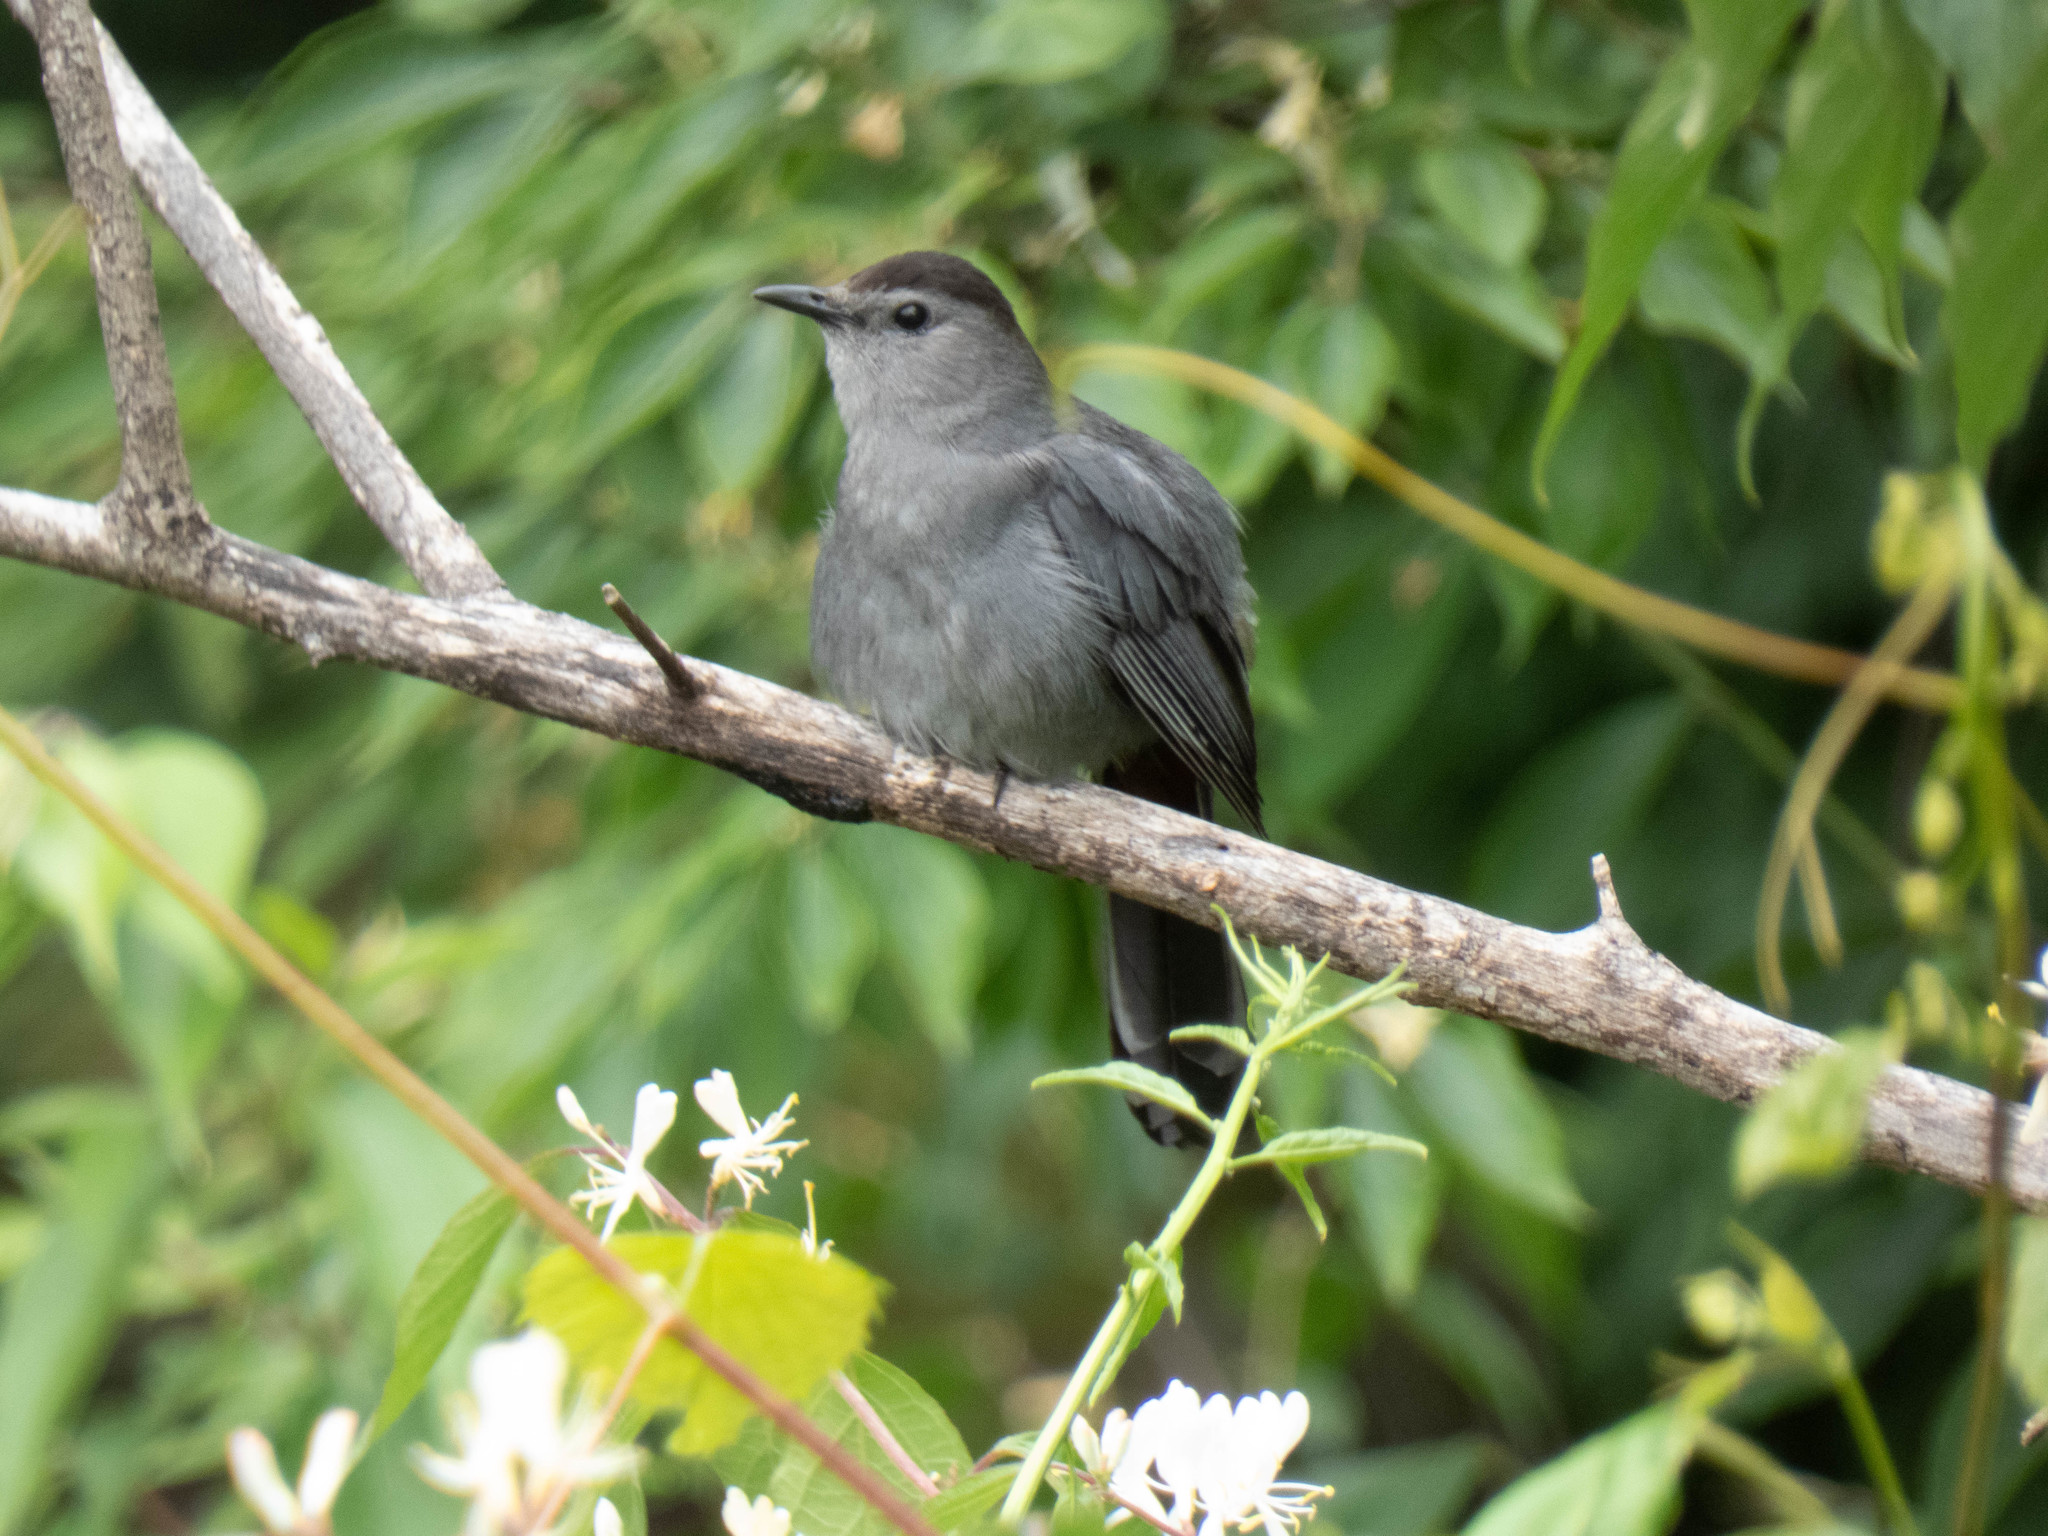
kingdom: Animalia
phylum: Chordata
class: Aves
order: Passeriformes
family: Mimidae
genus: Dumetella
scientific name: Dumetella carolinensis
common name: Gray catbird
